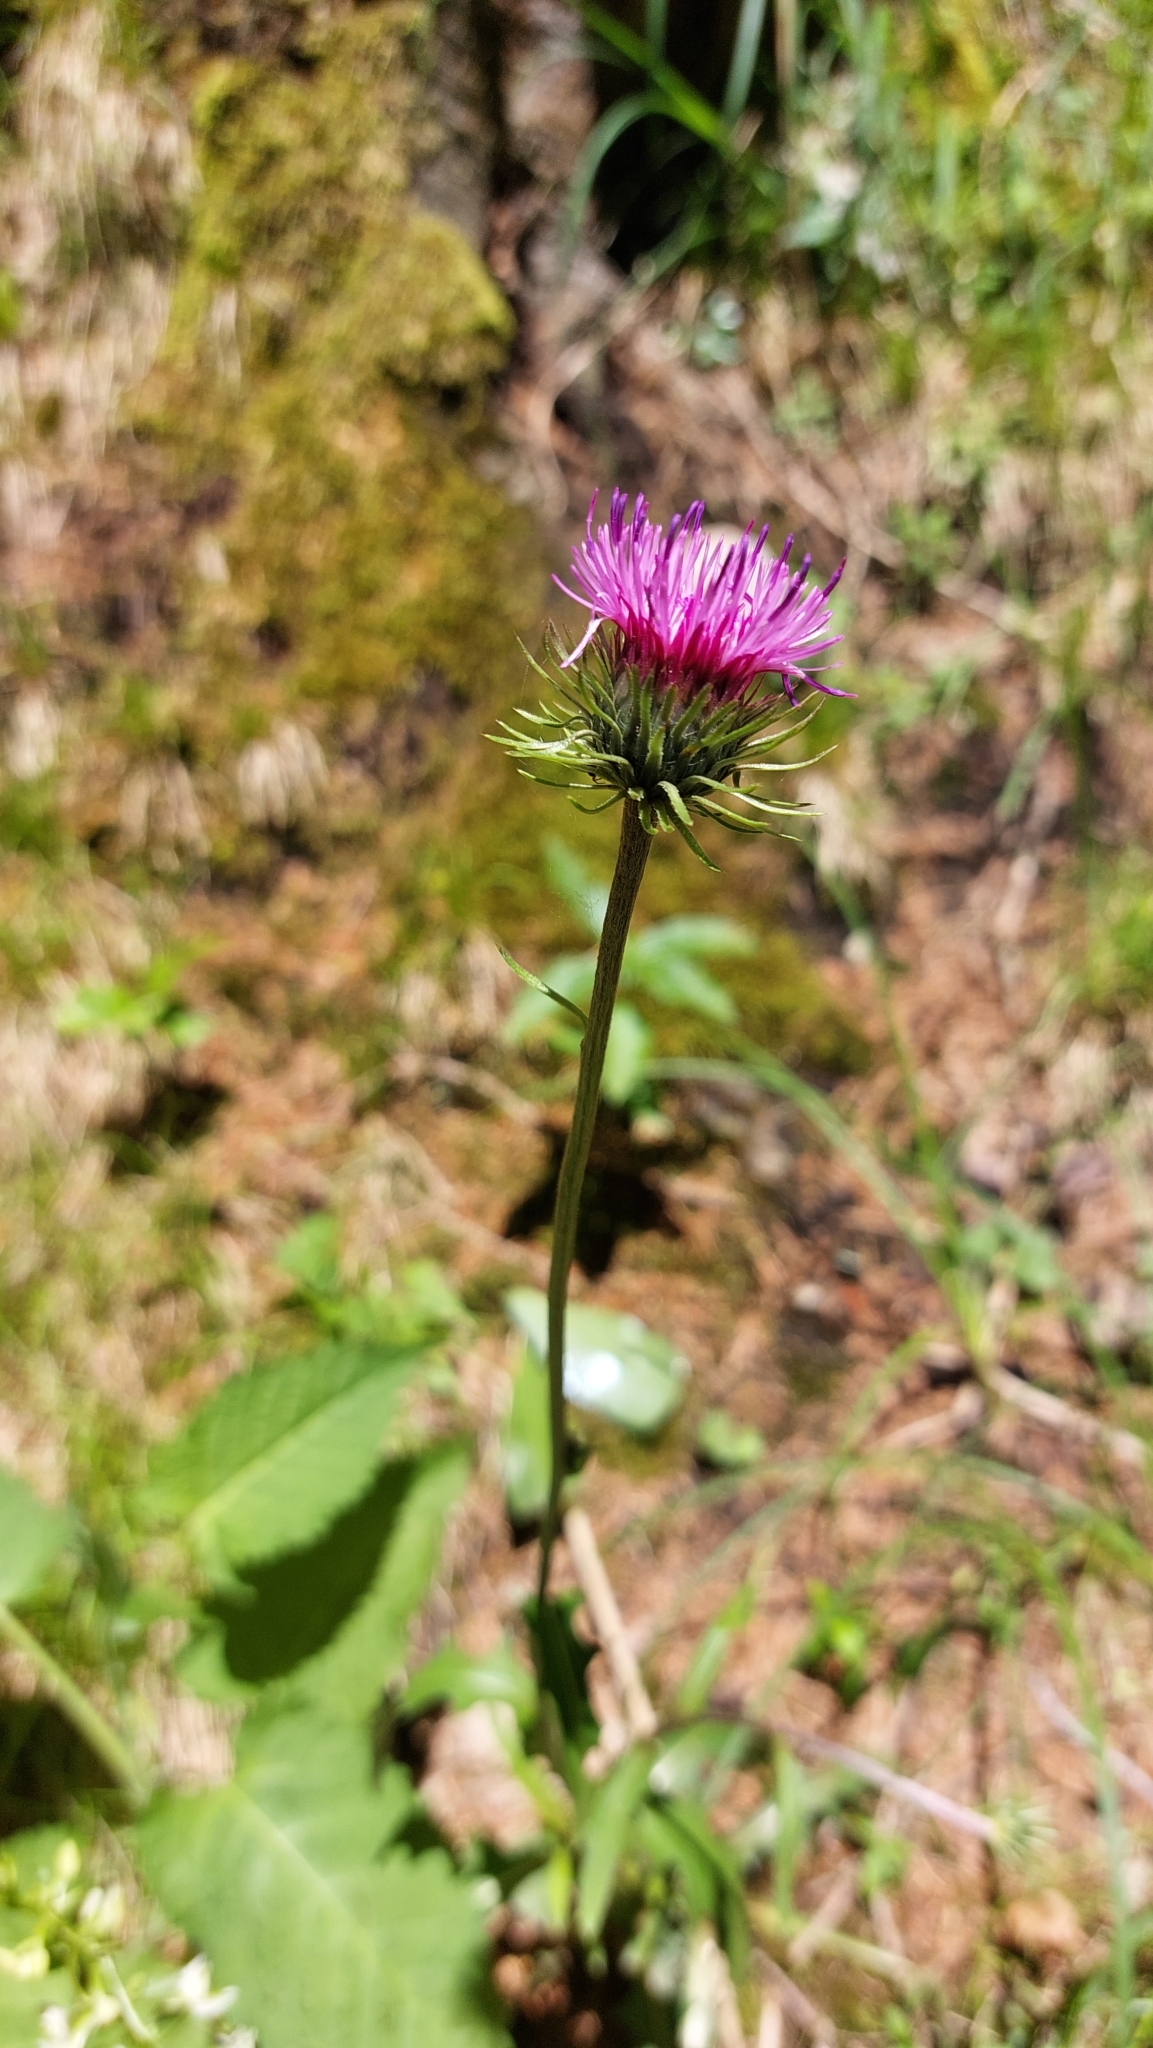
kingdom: Plantae
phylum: Tracheophyta
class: Magnoliopsida
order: Asterales
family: Asteraceae
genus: Carduus
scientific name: Carduus defloratus
